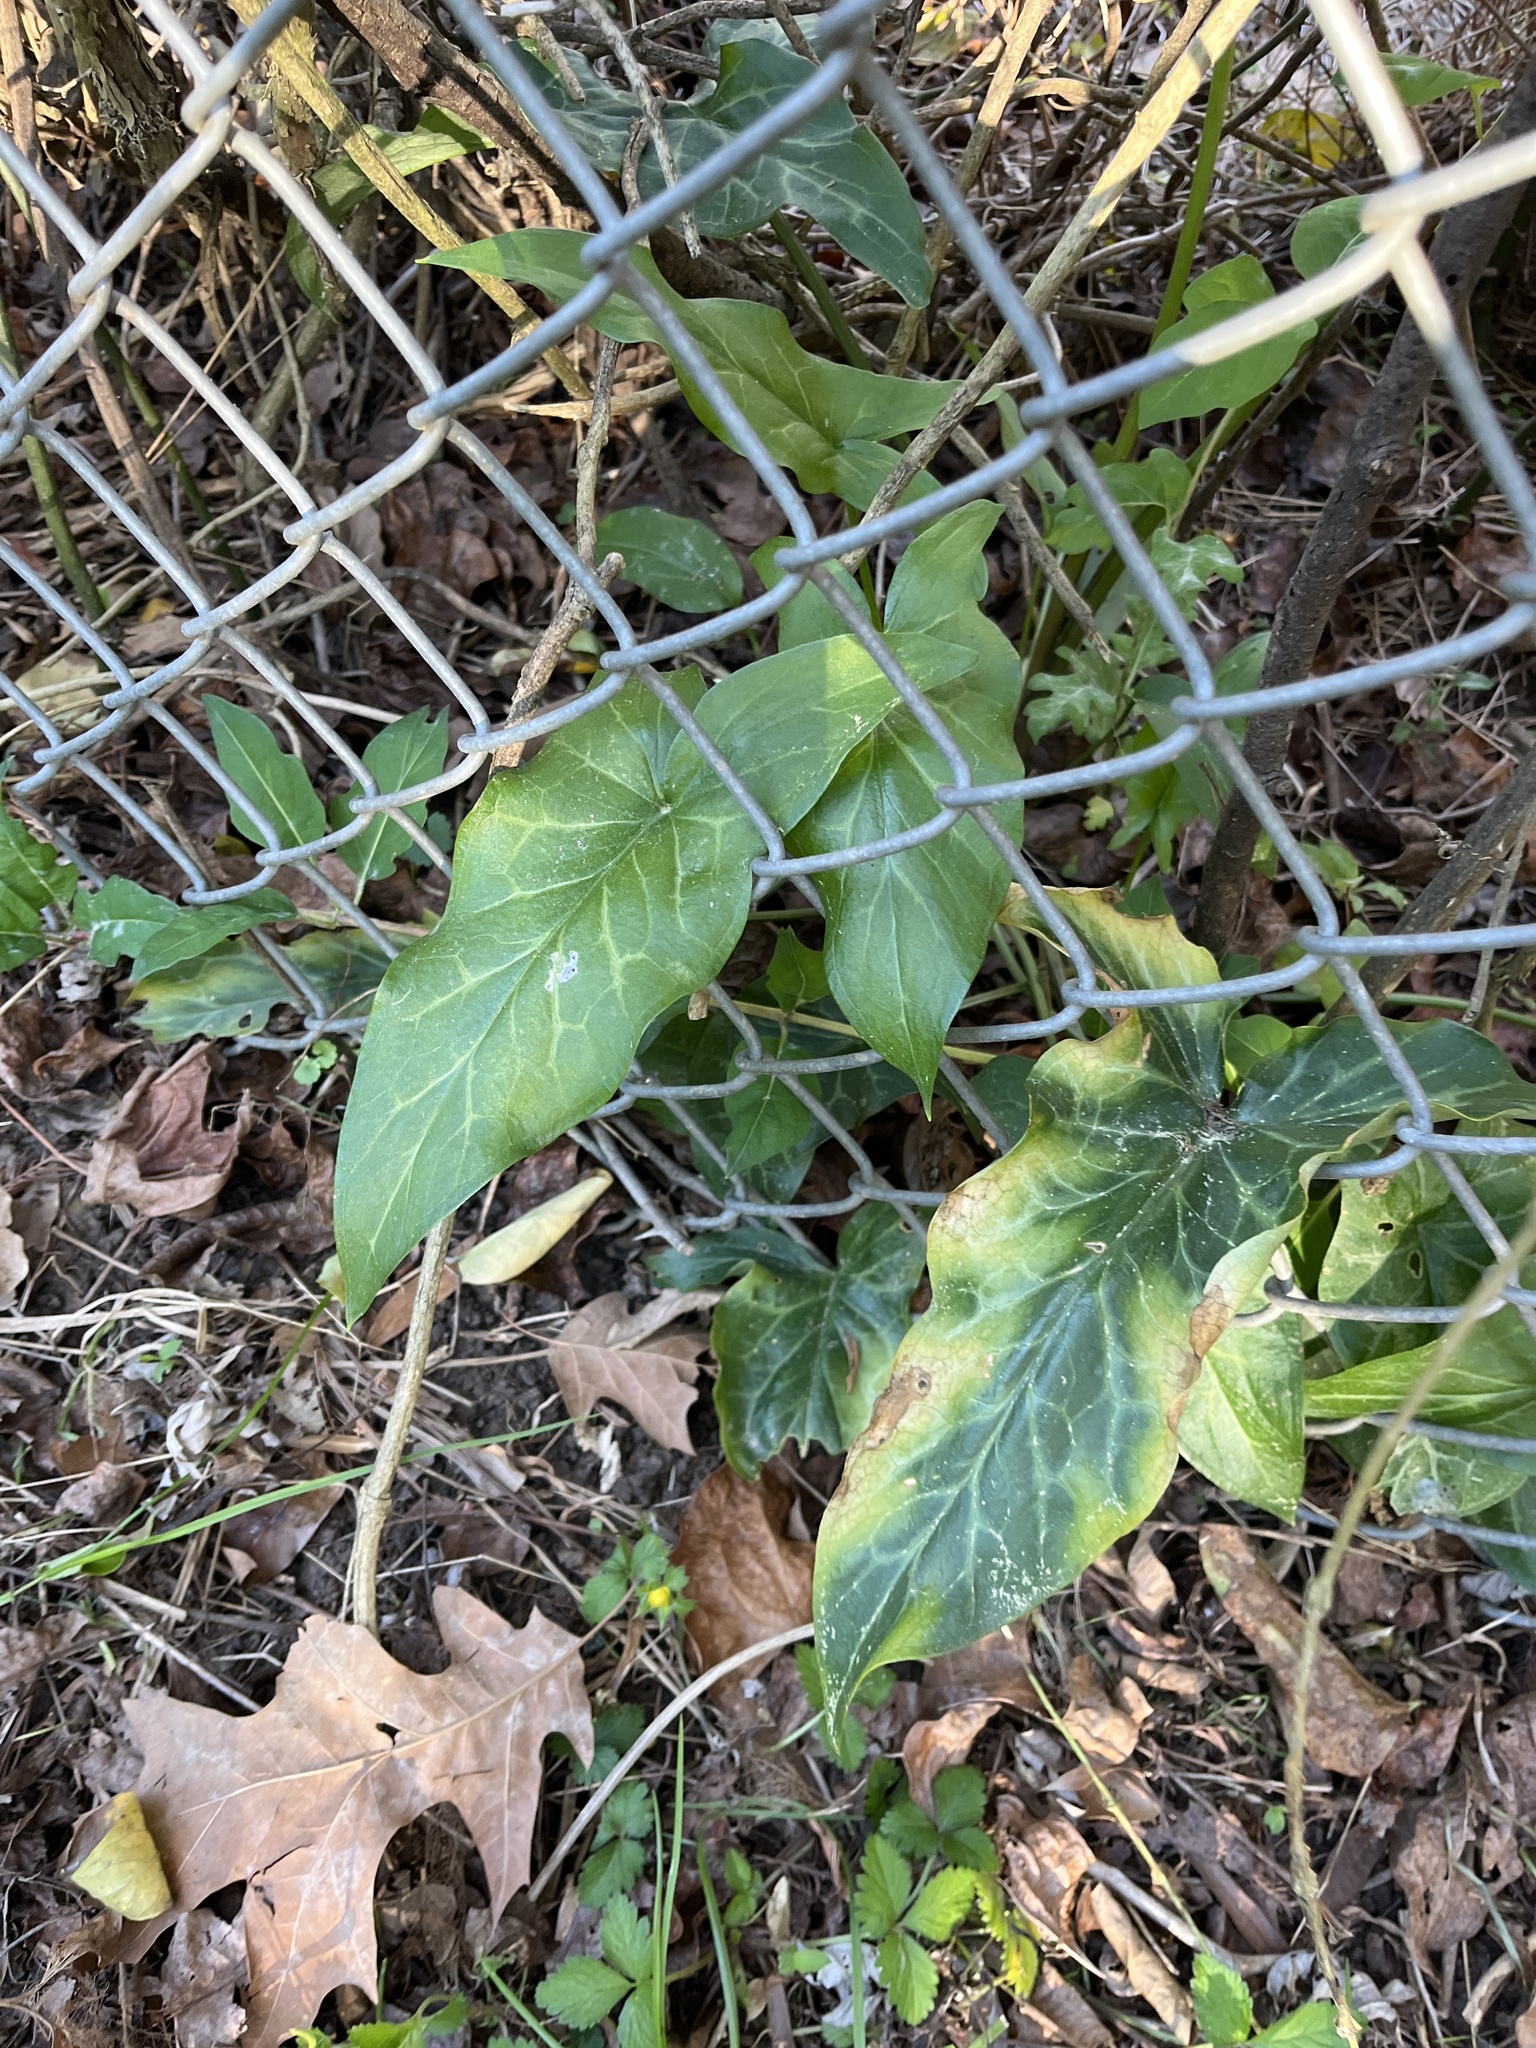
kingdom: Plantae
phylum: Tracheophyta
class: Liliopsida
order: Alismatales
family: Araceae
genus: Arum
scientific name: Arum italicum
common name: Italian lords-and-ladies
